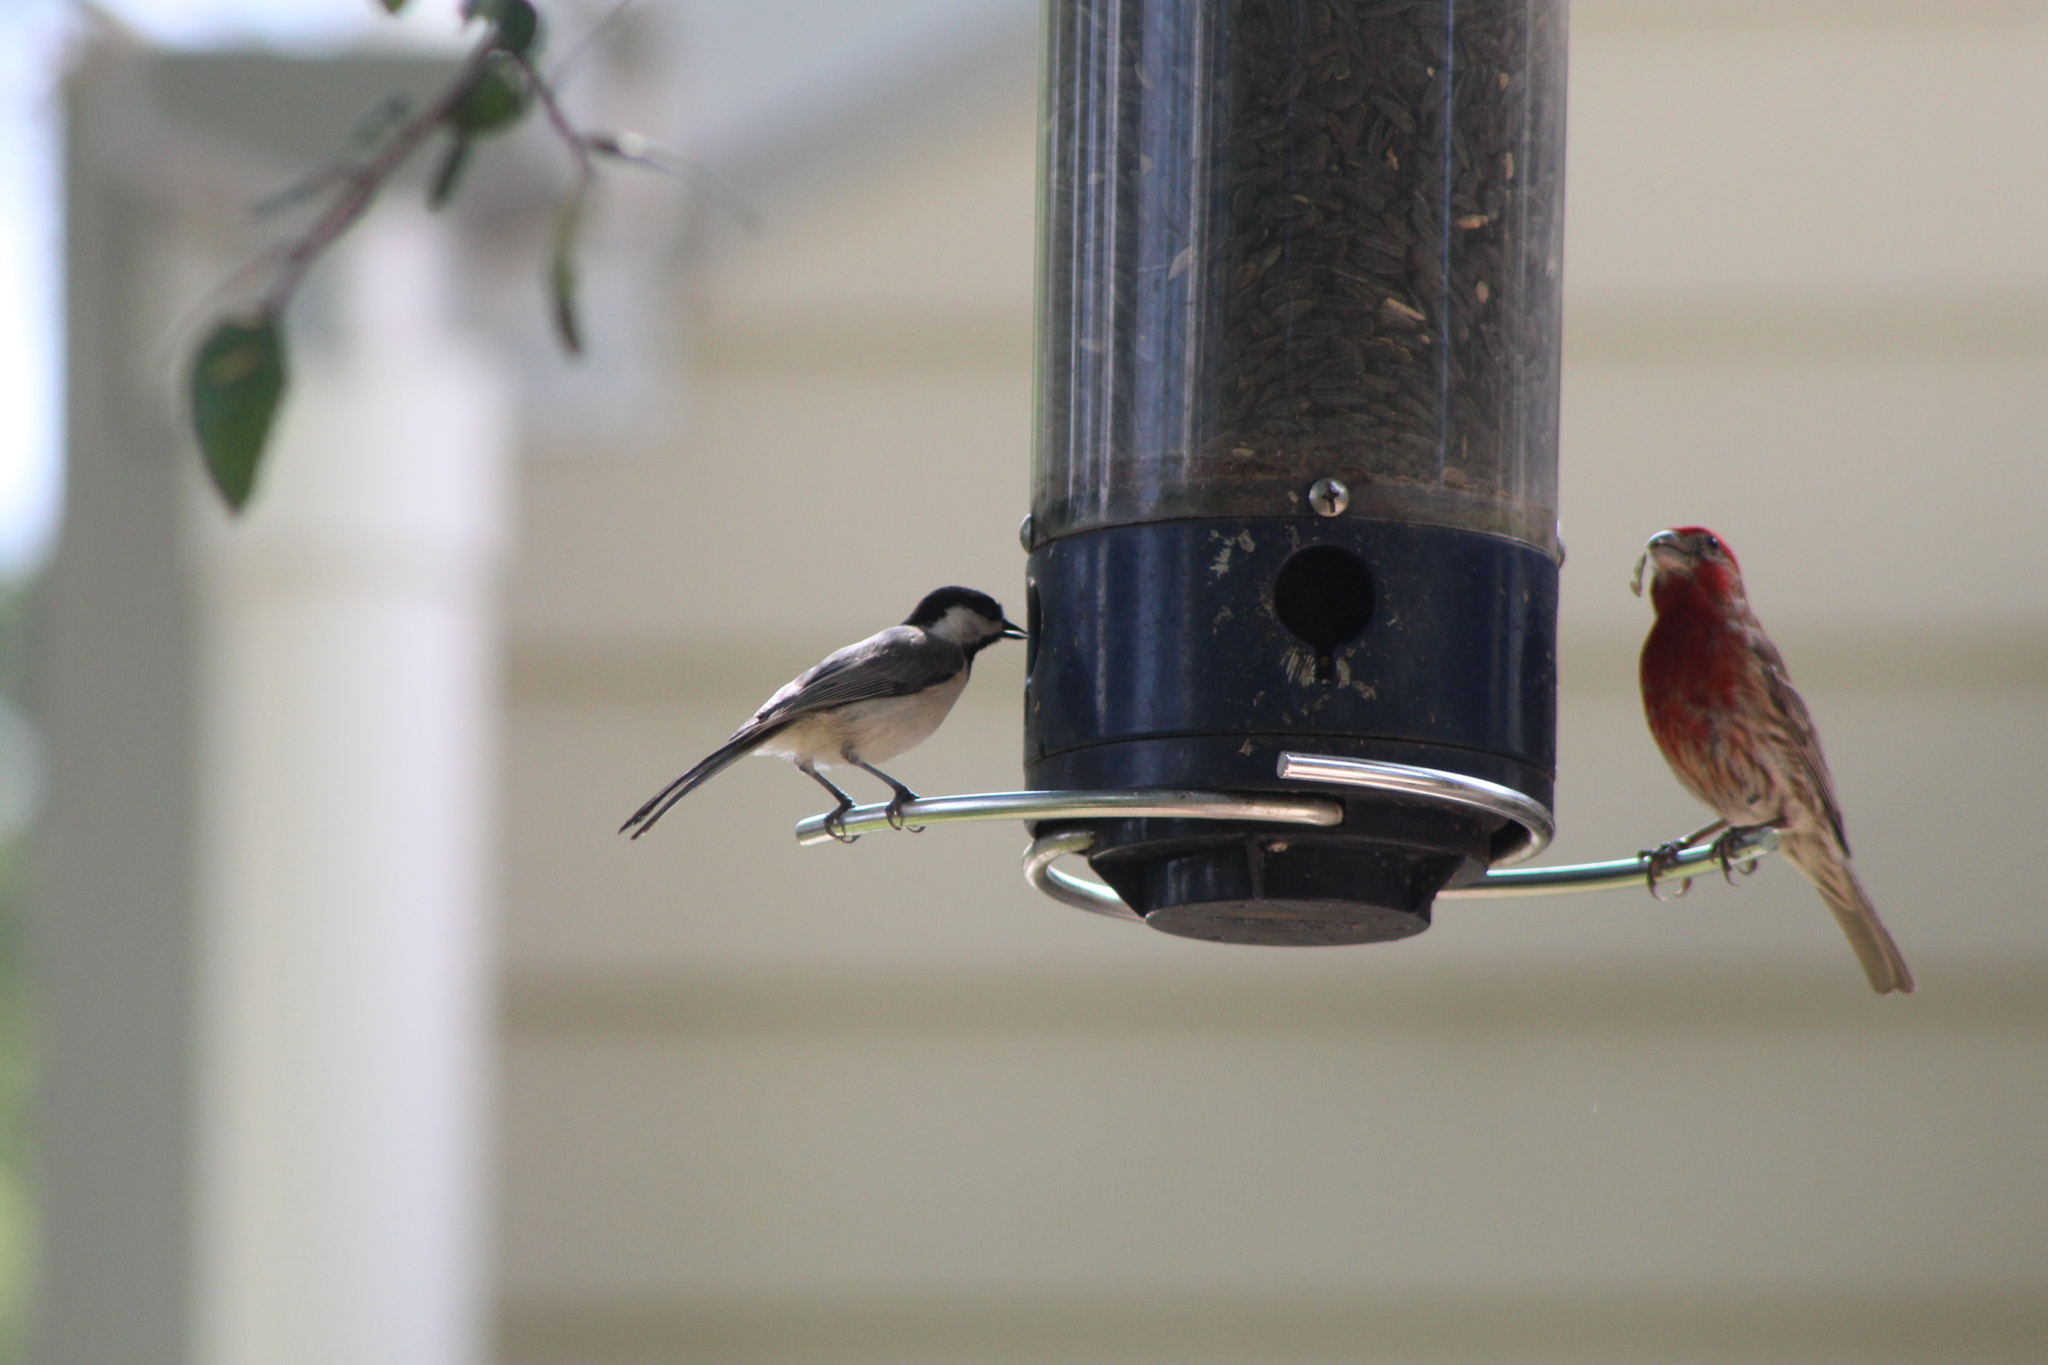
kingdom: Animalia
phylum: Chordata
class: Aves
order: Passeriformes
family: Paridae
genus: Poecile
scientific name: Poecile carolinensis
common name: Carolina chickadee
